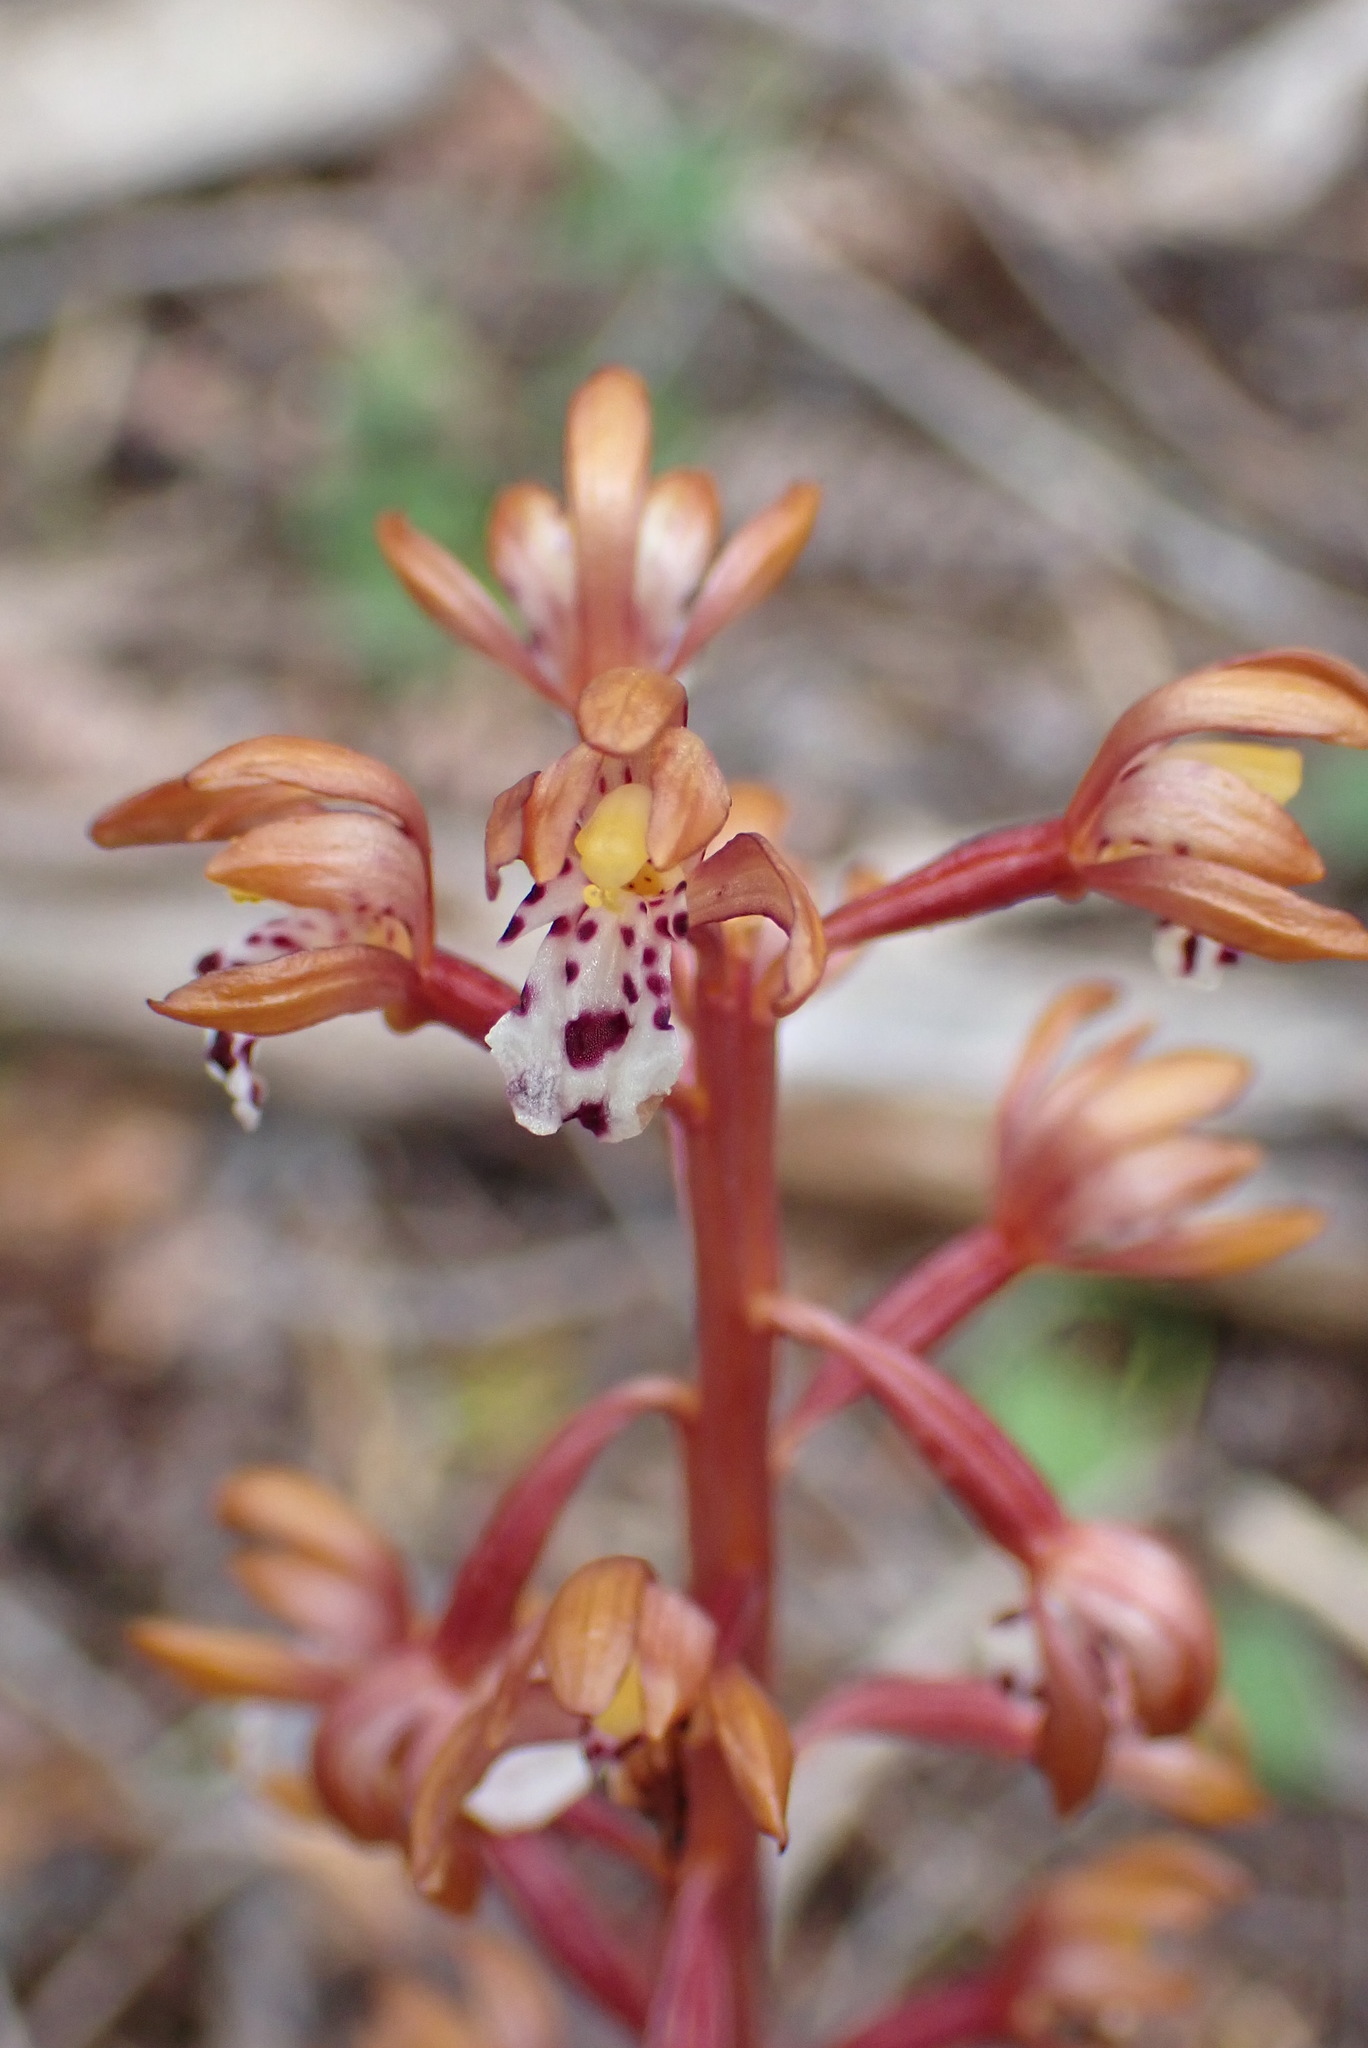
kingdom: Plantae
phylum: Tracheophyta
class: Liliopsida
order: Asparagales
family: Orchidaceae
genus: Corallorhiza
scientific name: Corallorhiza maculata
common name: Spotted coralroot
